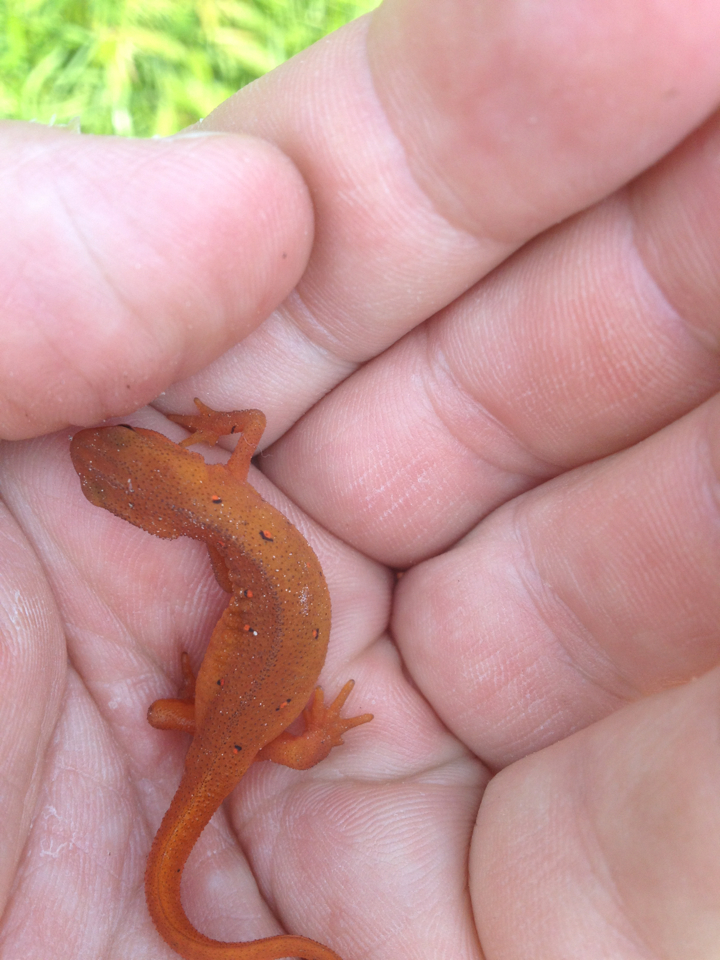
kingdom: Animalia
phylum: Chordata
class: Amphibia
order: Caudata
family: Salamandridae
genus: Notophthalmus
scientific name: Notophthalmus viridescens
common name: Eastern newt
